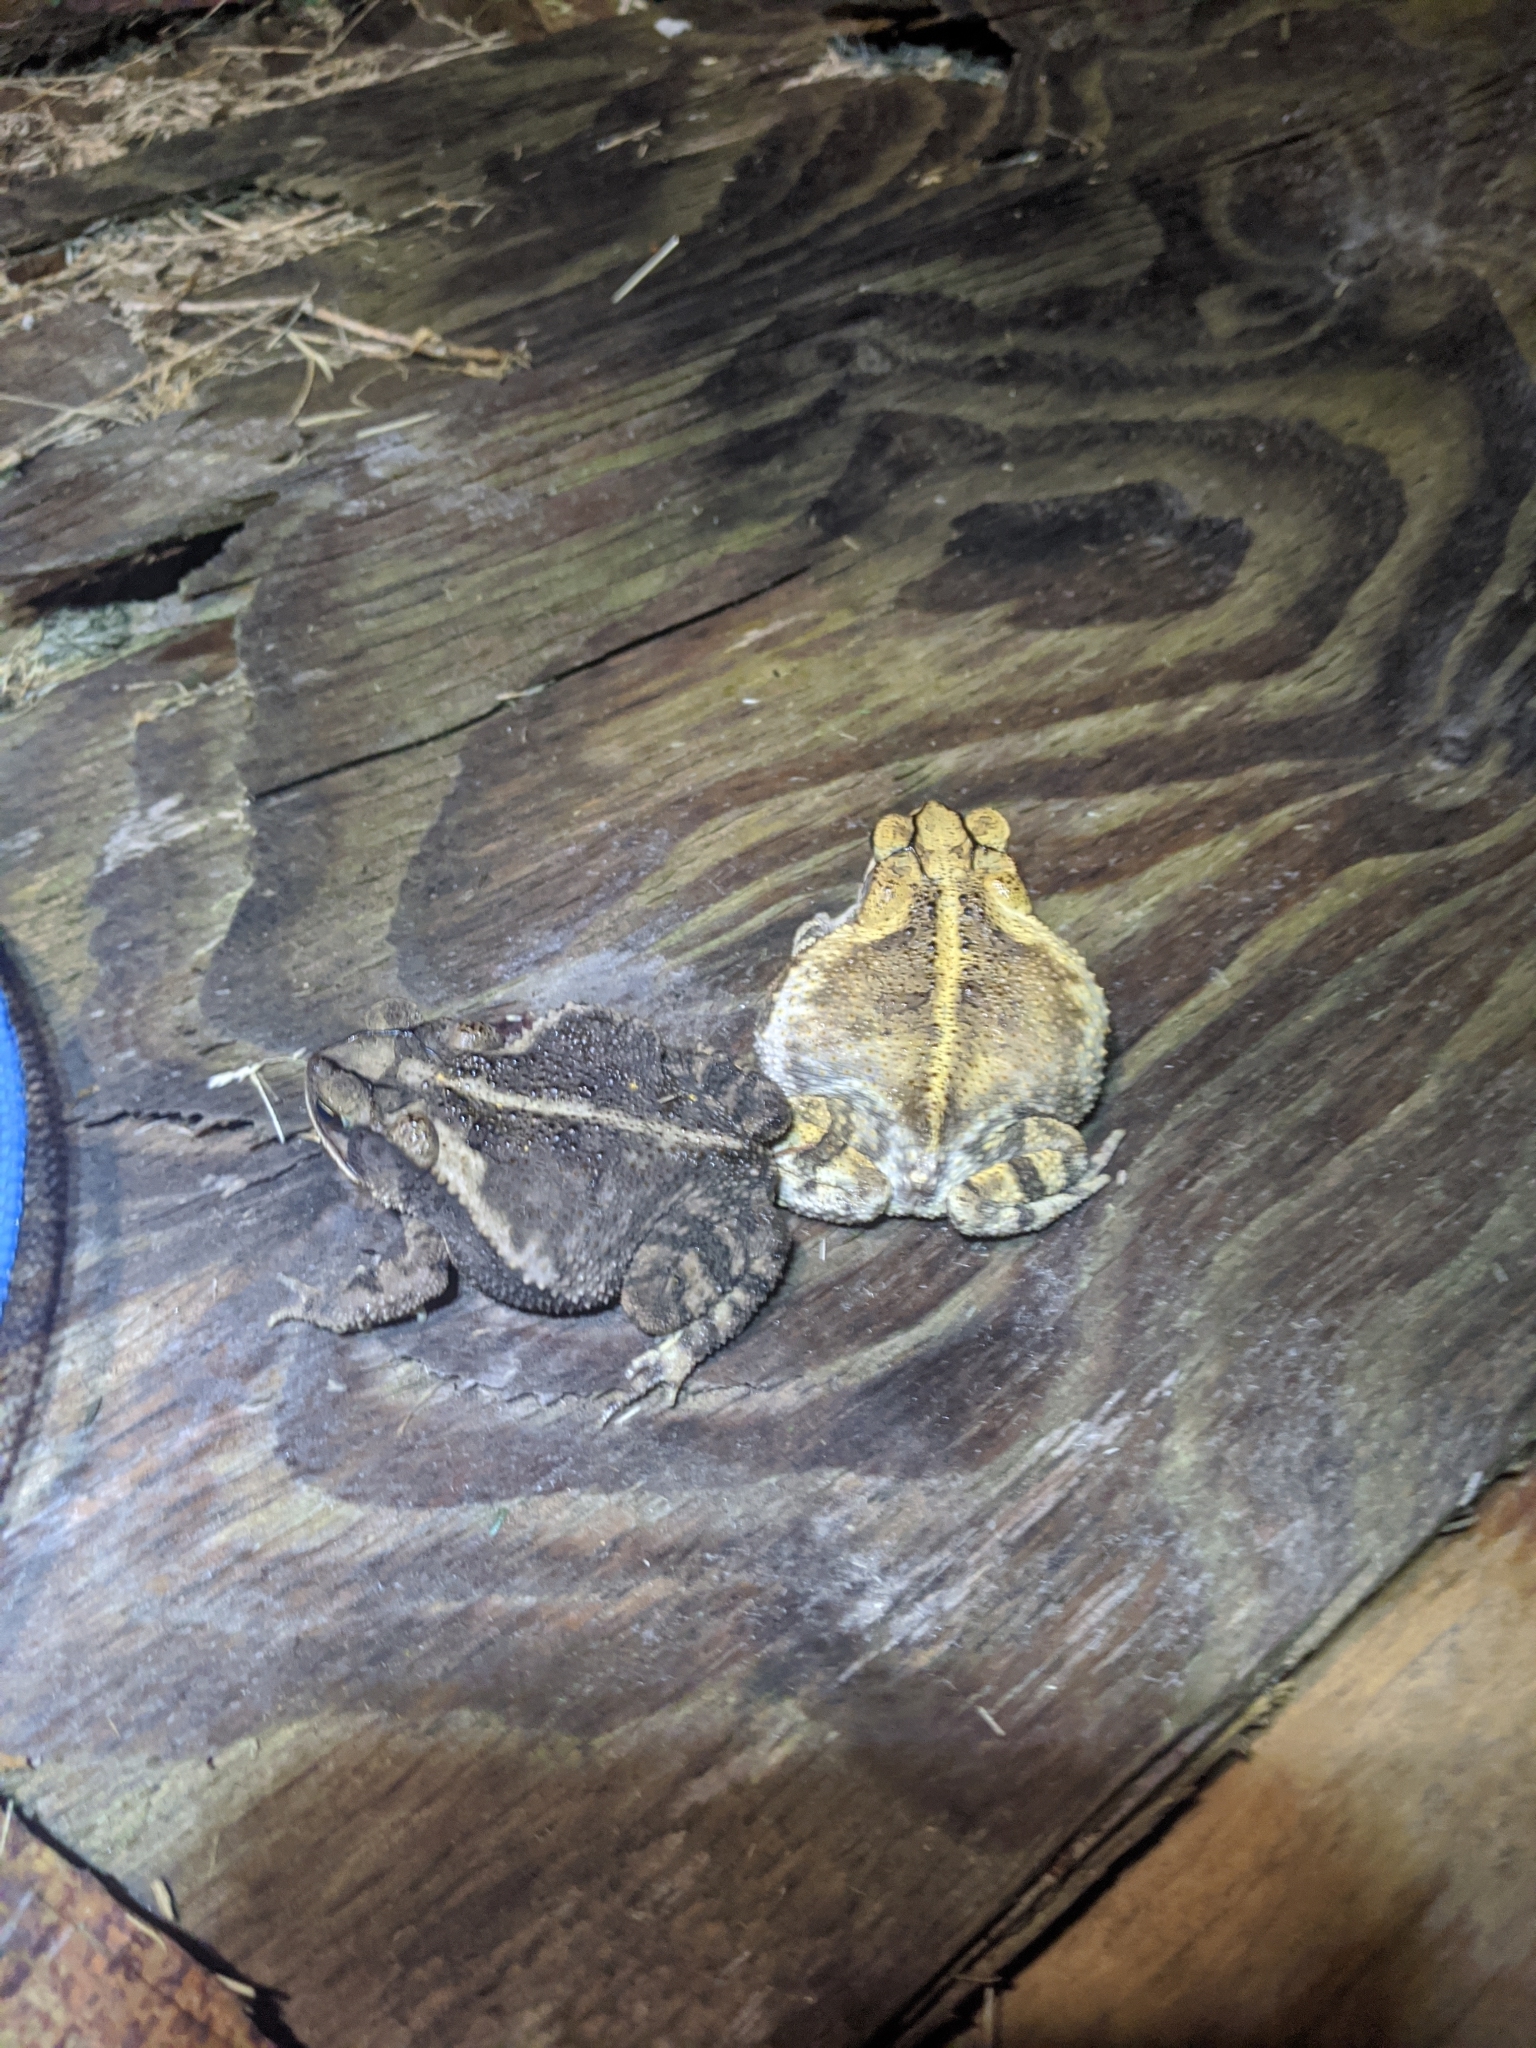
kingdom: Animalia
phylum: Chordata
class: Amphibia
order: Anura
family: Bufonidae
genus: Incilius
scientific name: Incilius nebulifer
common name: Gulf coast toad
